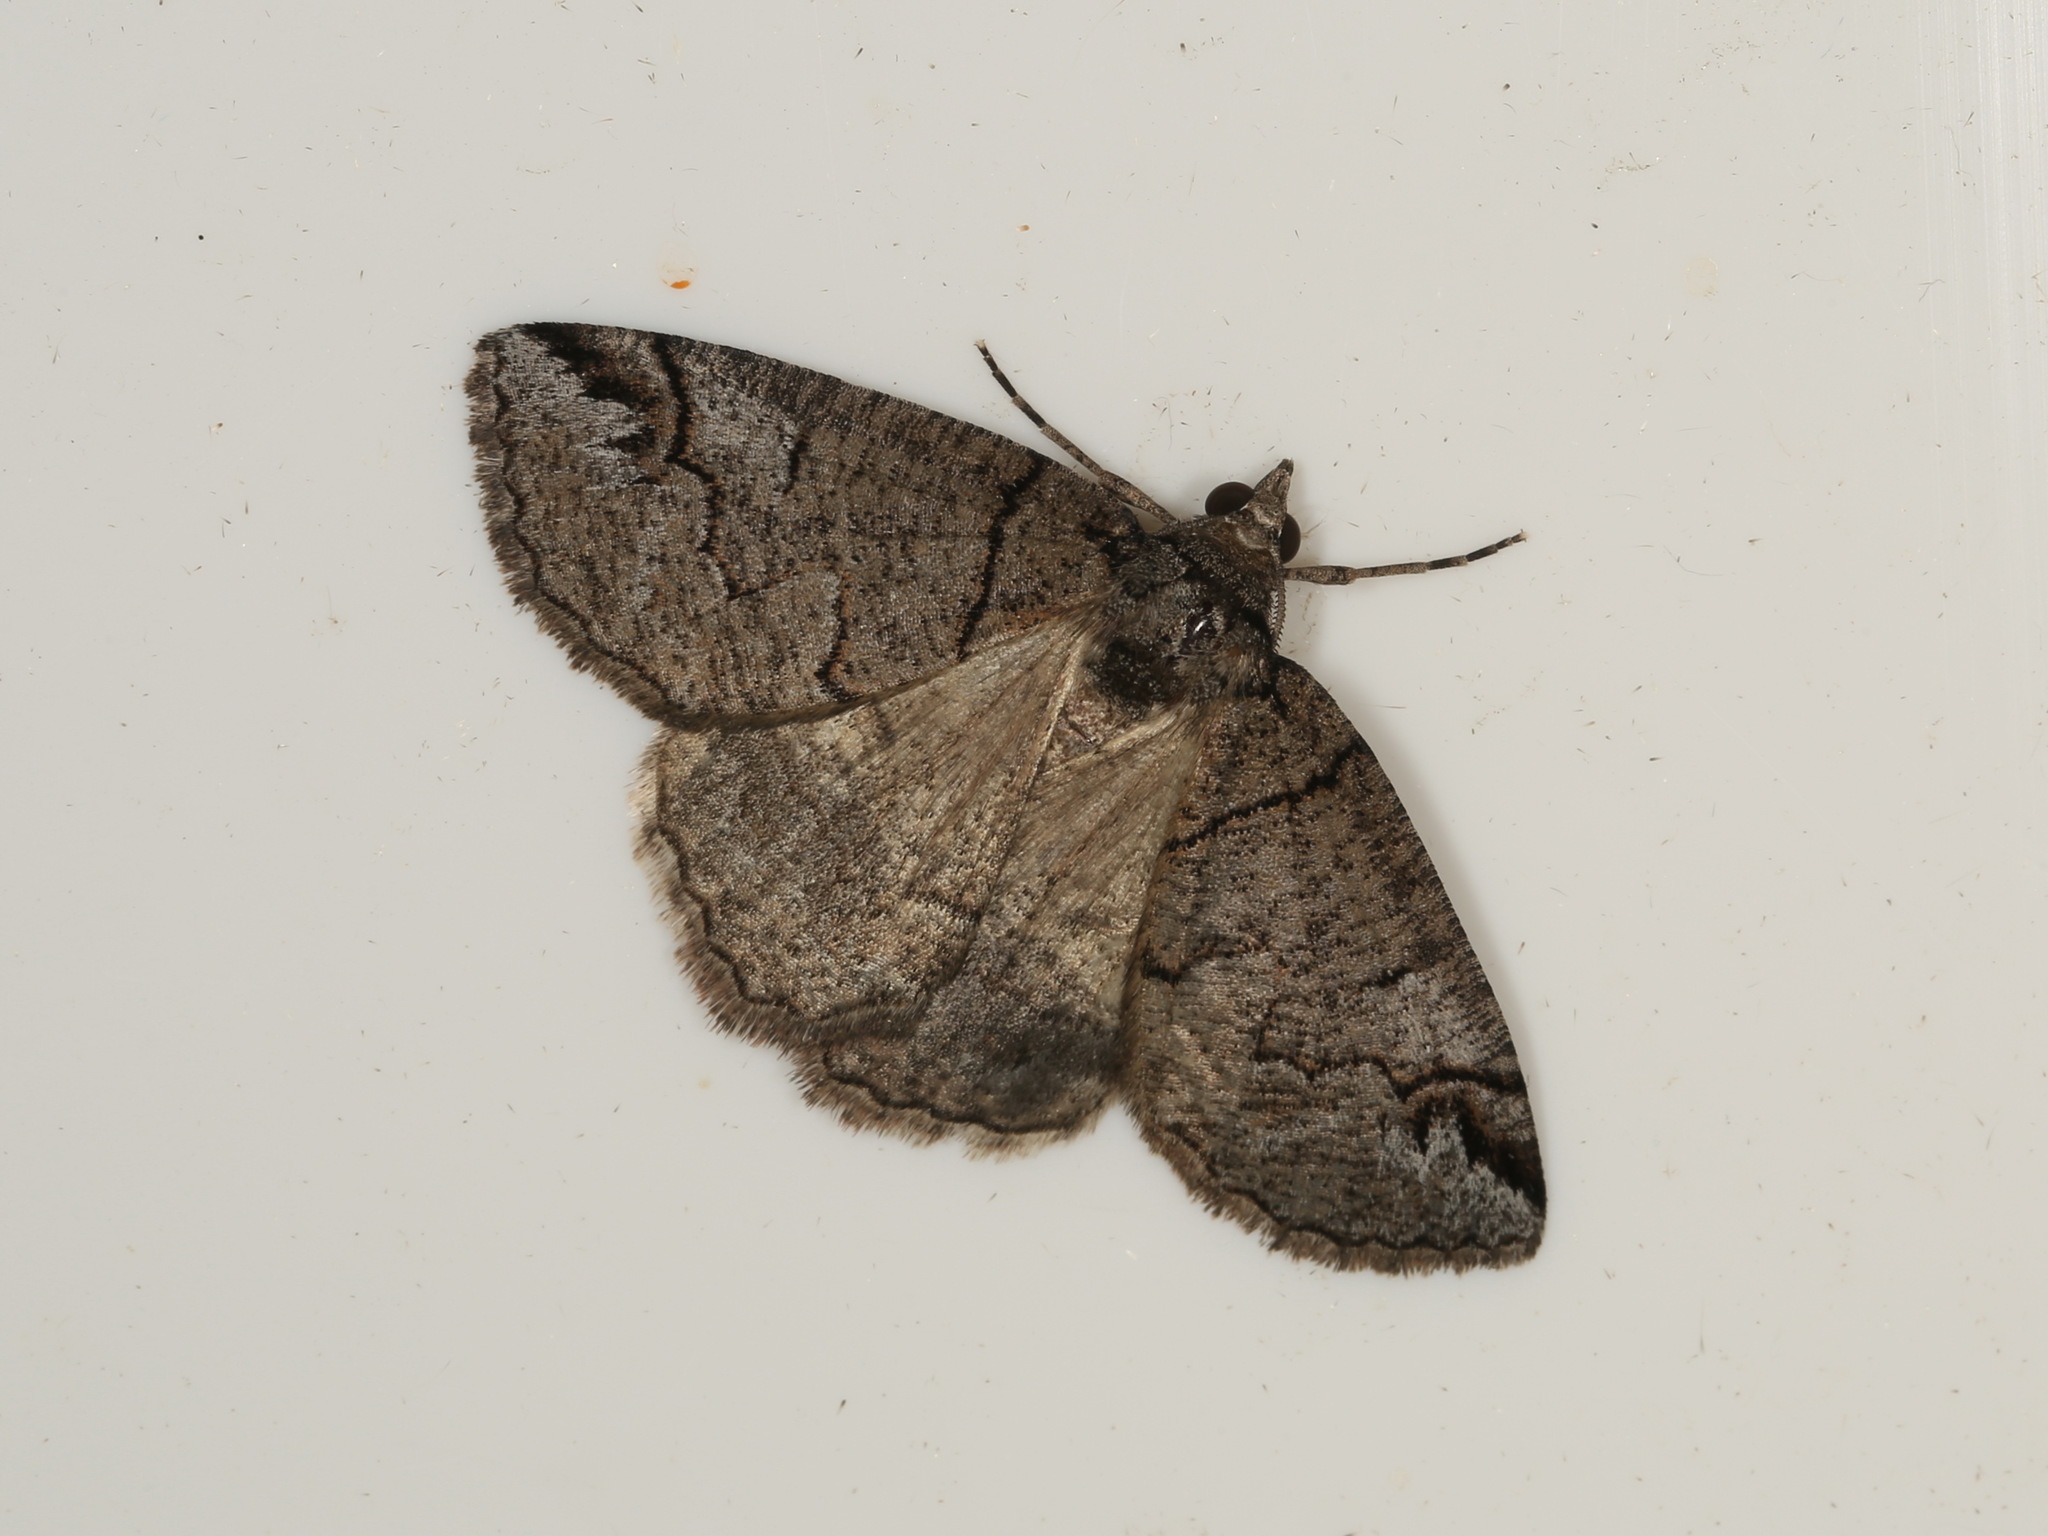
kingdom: Animalia
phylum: Arthropoda
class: Insecta
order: Lepidoptera
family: Geometridae
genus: Austroterpna
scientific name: Austroterpna paratorna
